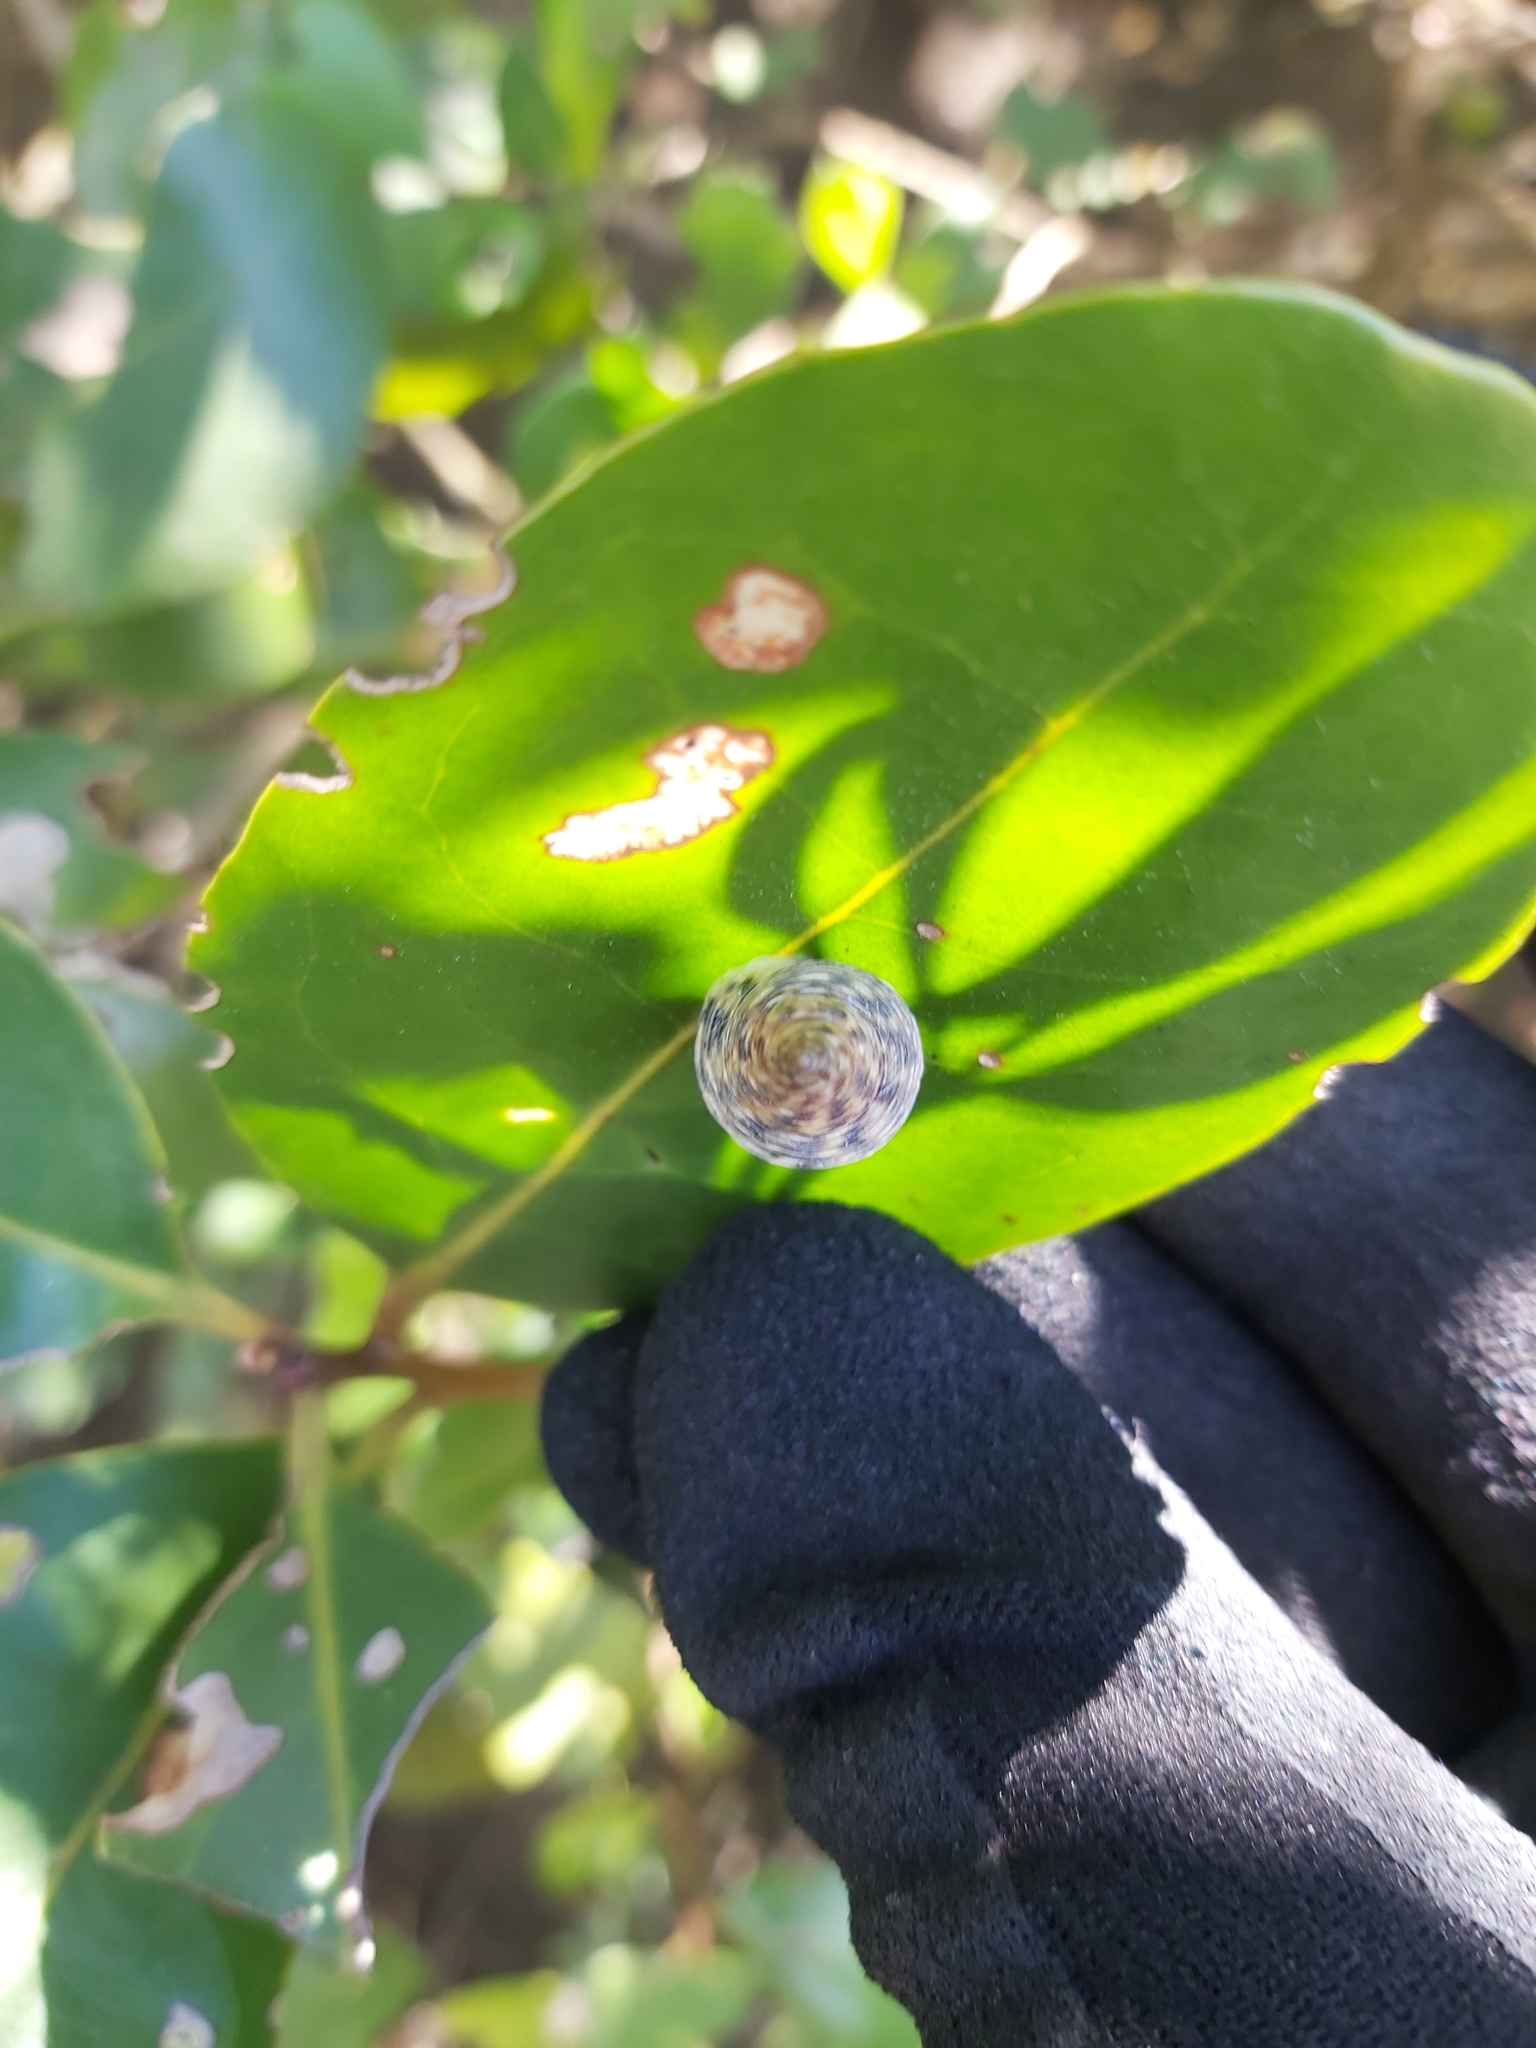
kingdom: Animalia
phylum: Mollusca
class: Gastropoda
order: Littorinimorpha
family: Littorinidae
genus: Littoraria
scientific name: Littoraria filosa
